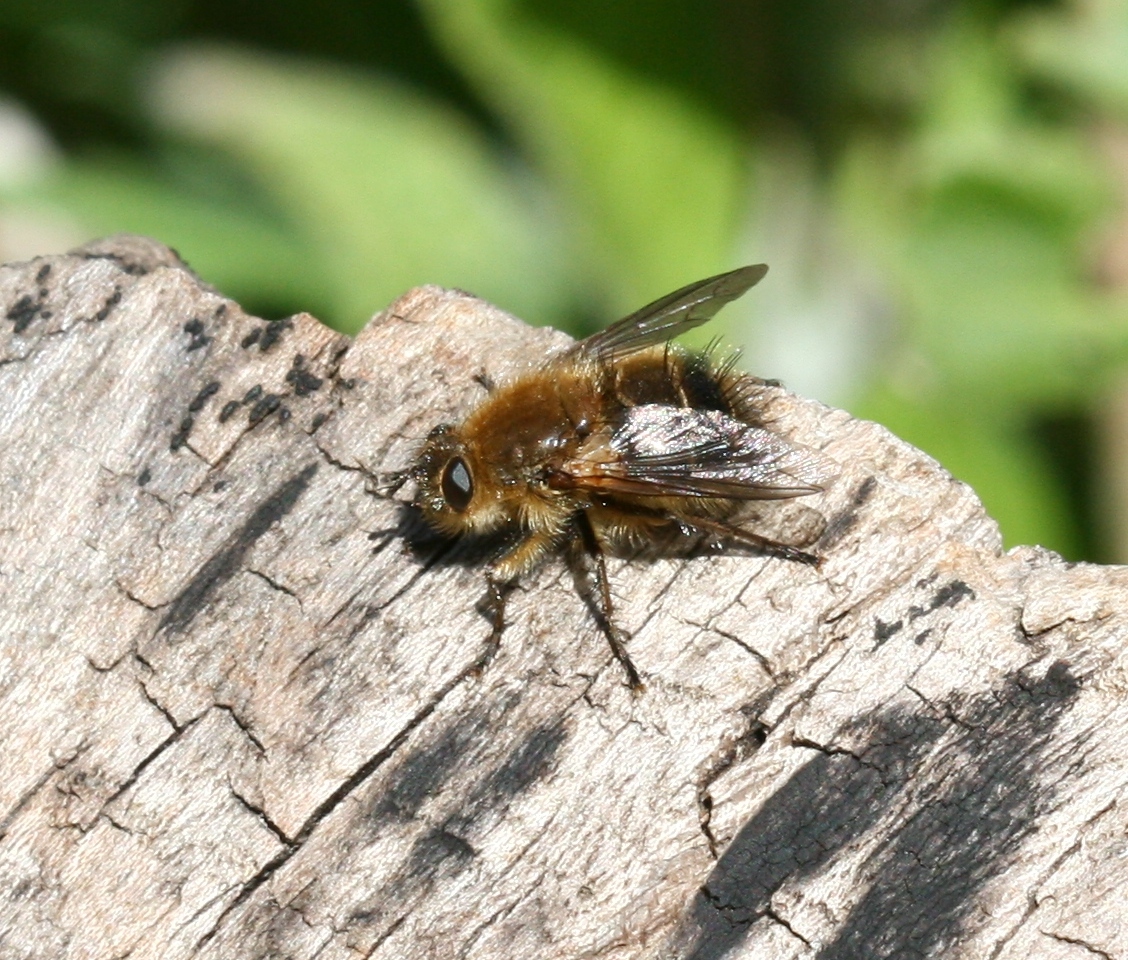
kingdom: Animalia
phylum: Arthropoda
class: Insecta
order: Diptera
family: Tachinidae
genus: Tachina
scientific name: Tachina ursina
